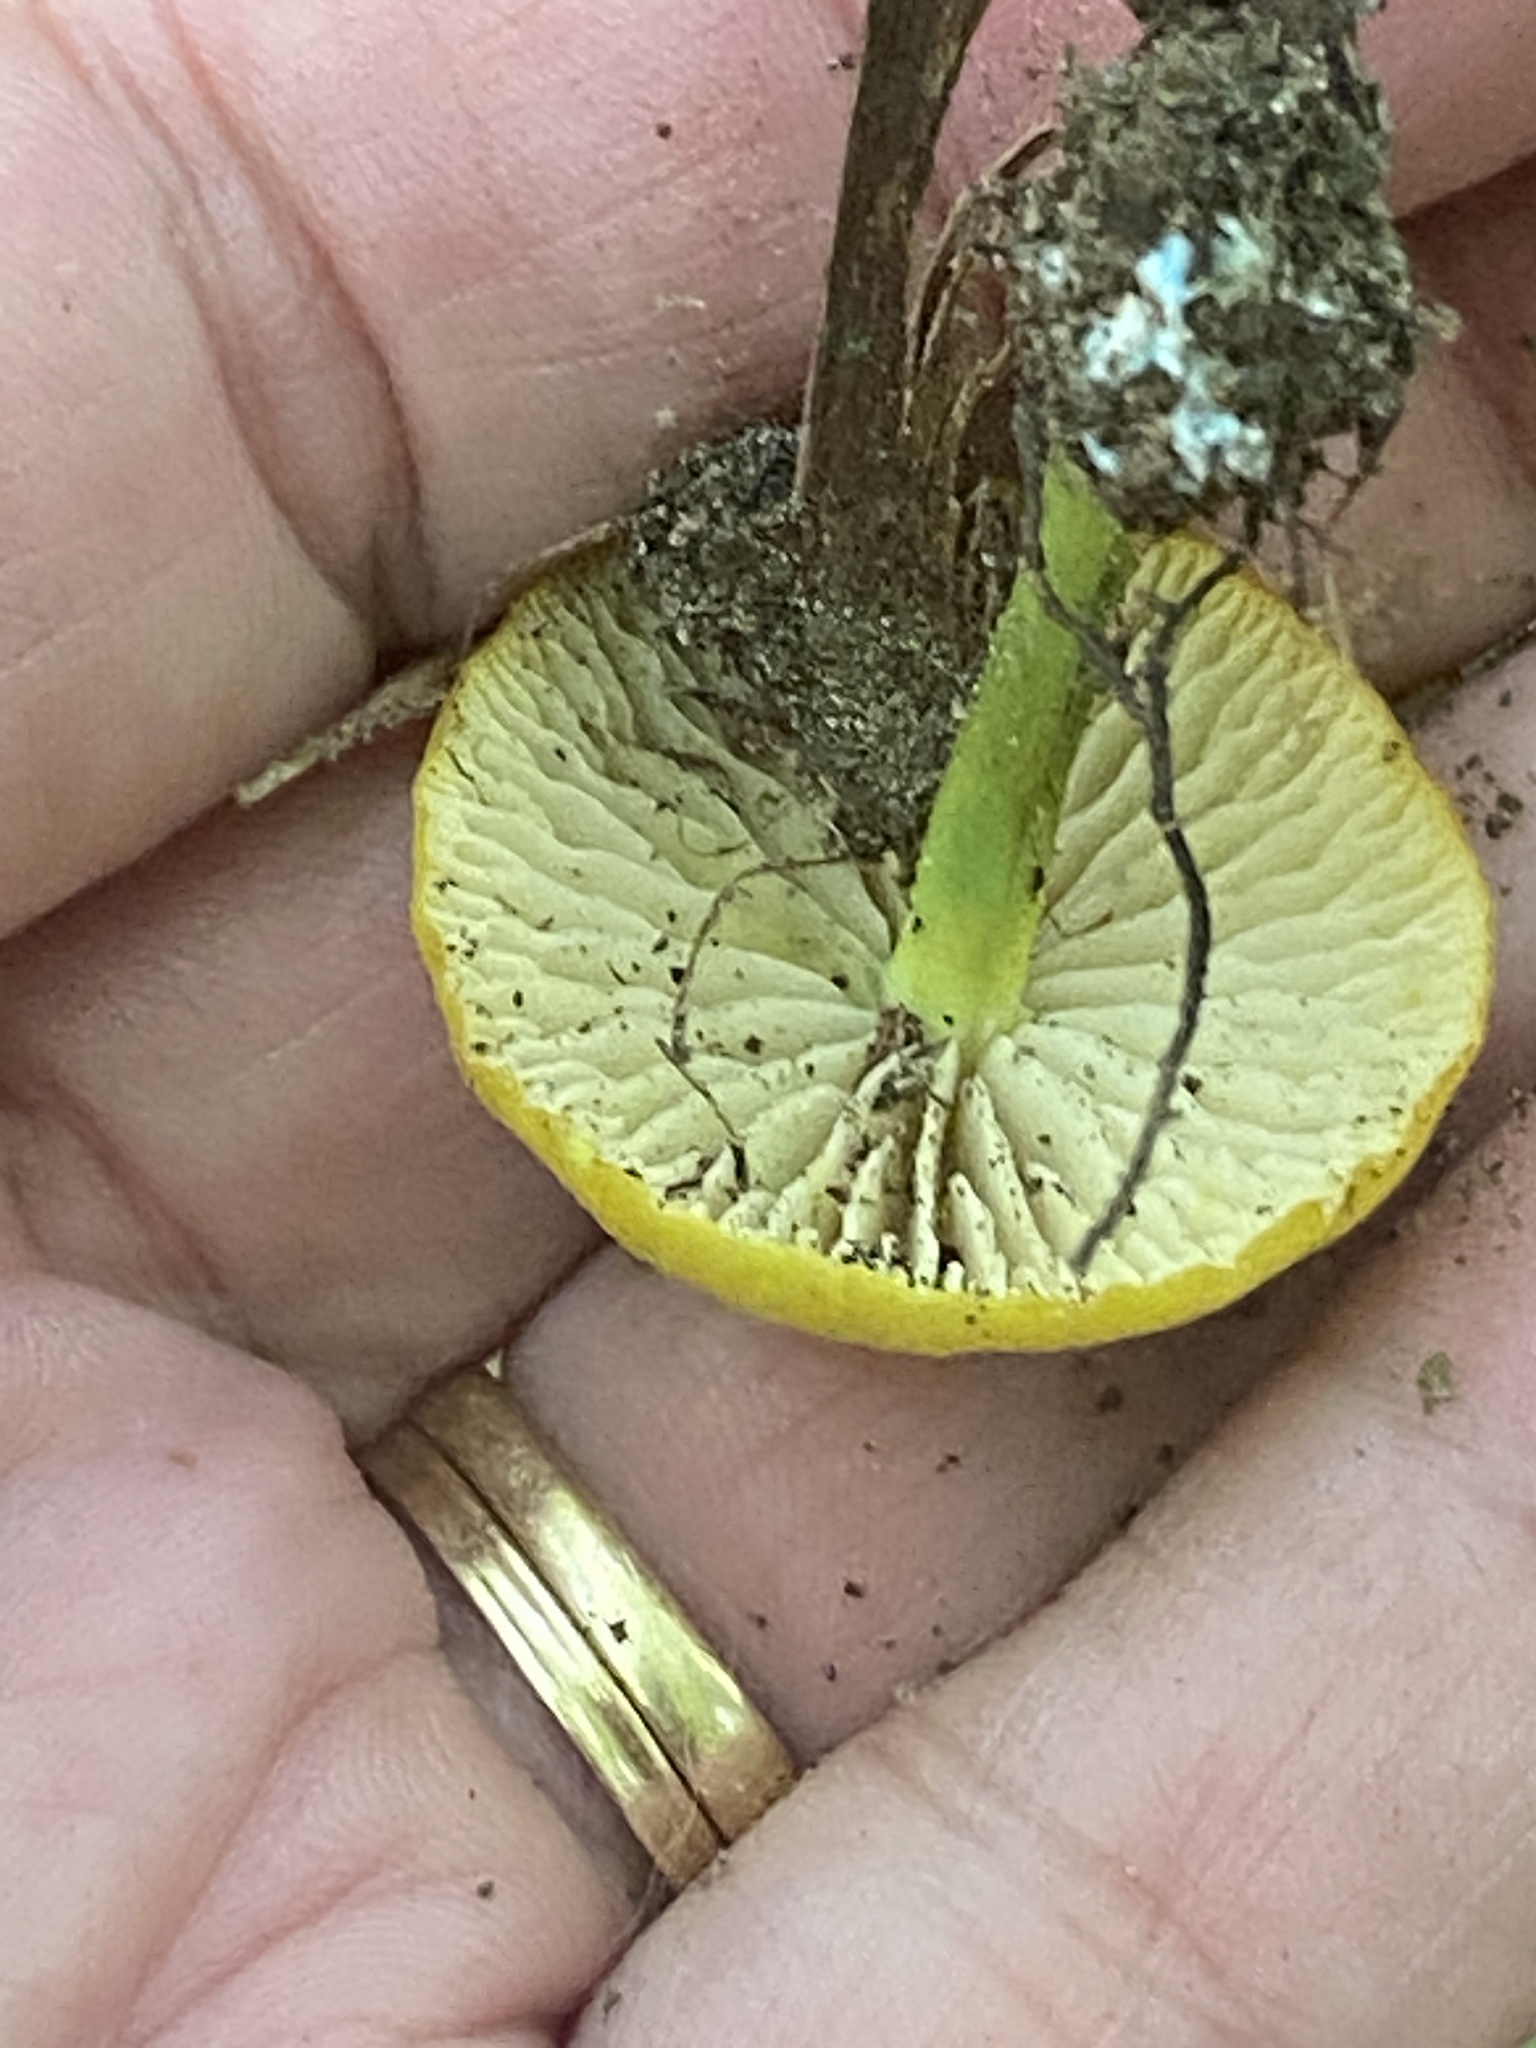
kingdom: Fungi
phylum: Basidiomycota
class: Agaricomycetes
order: Agaricales
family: Entolomataceae
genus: Entoloma
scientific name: Entoloma incanum
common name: Mousepee pinkgill
